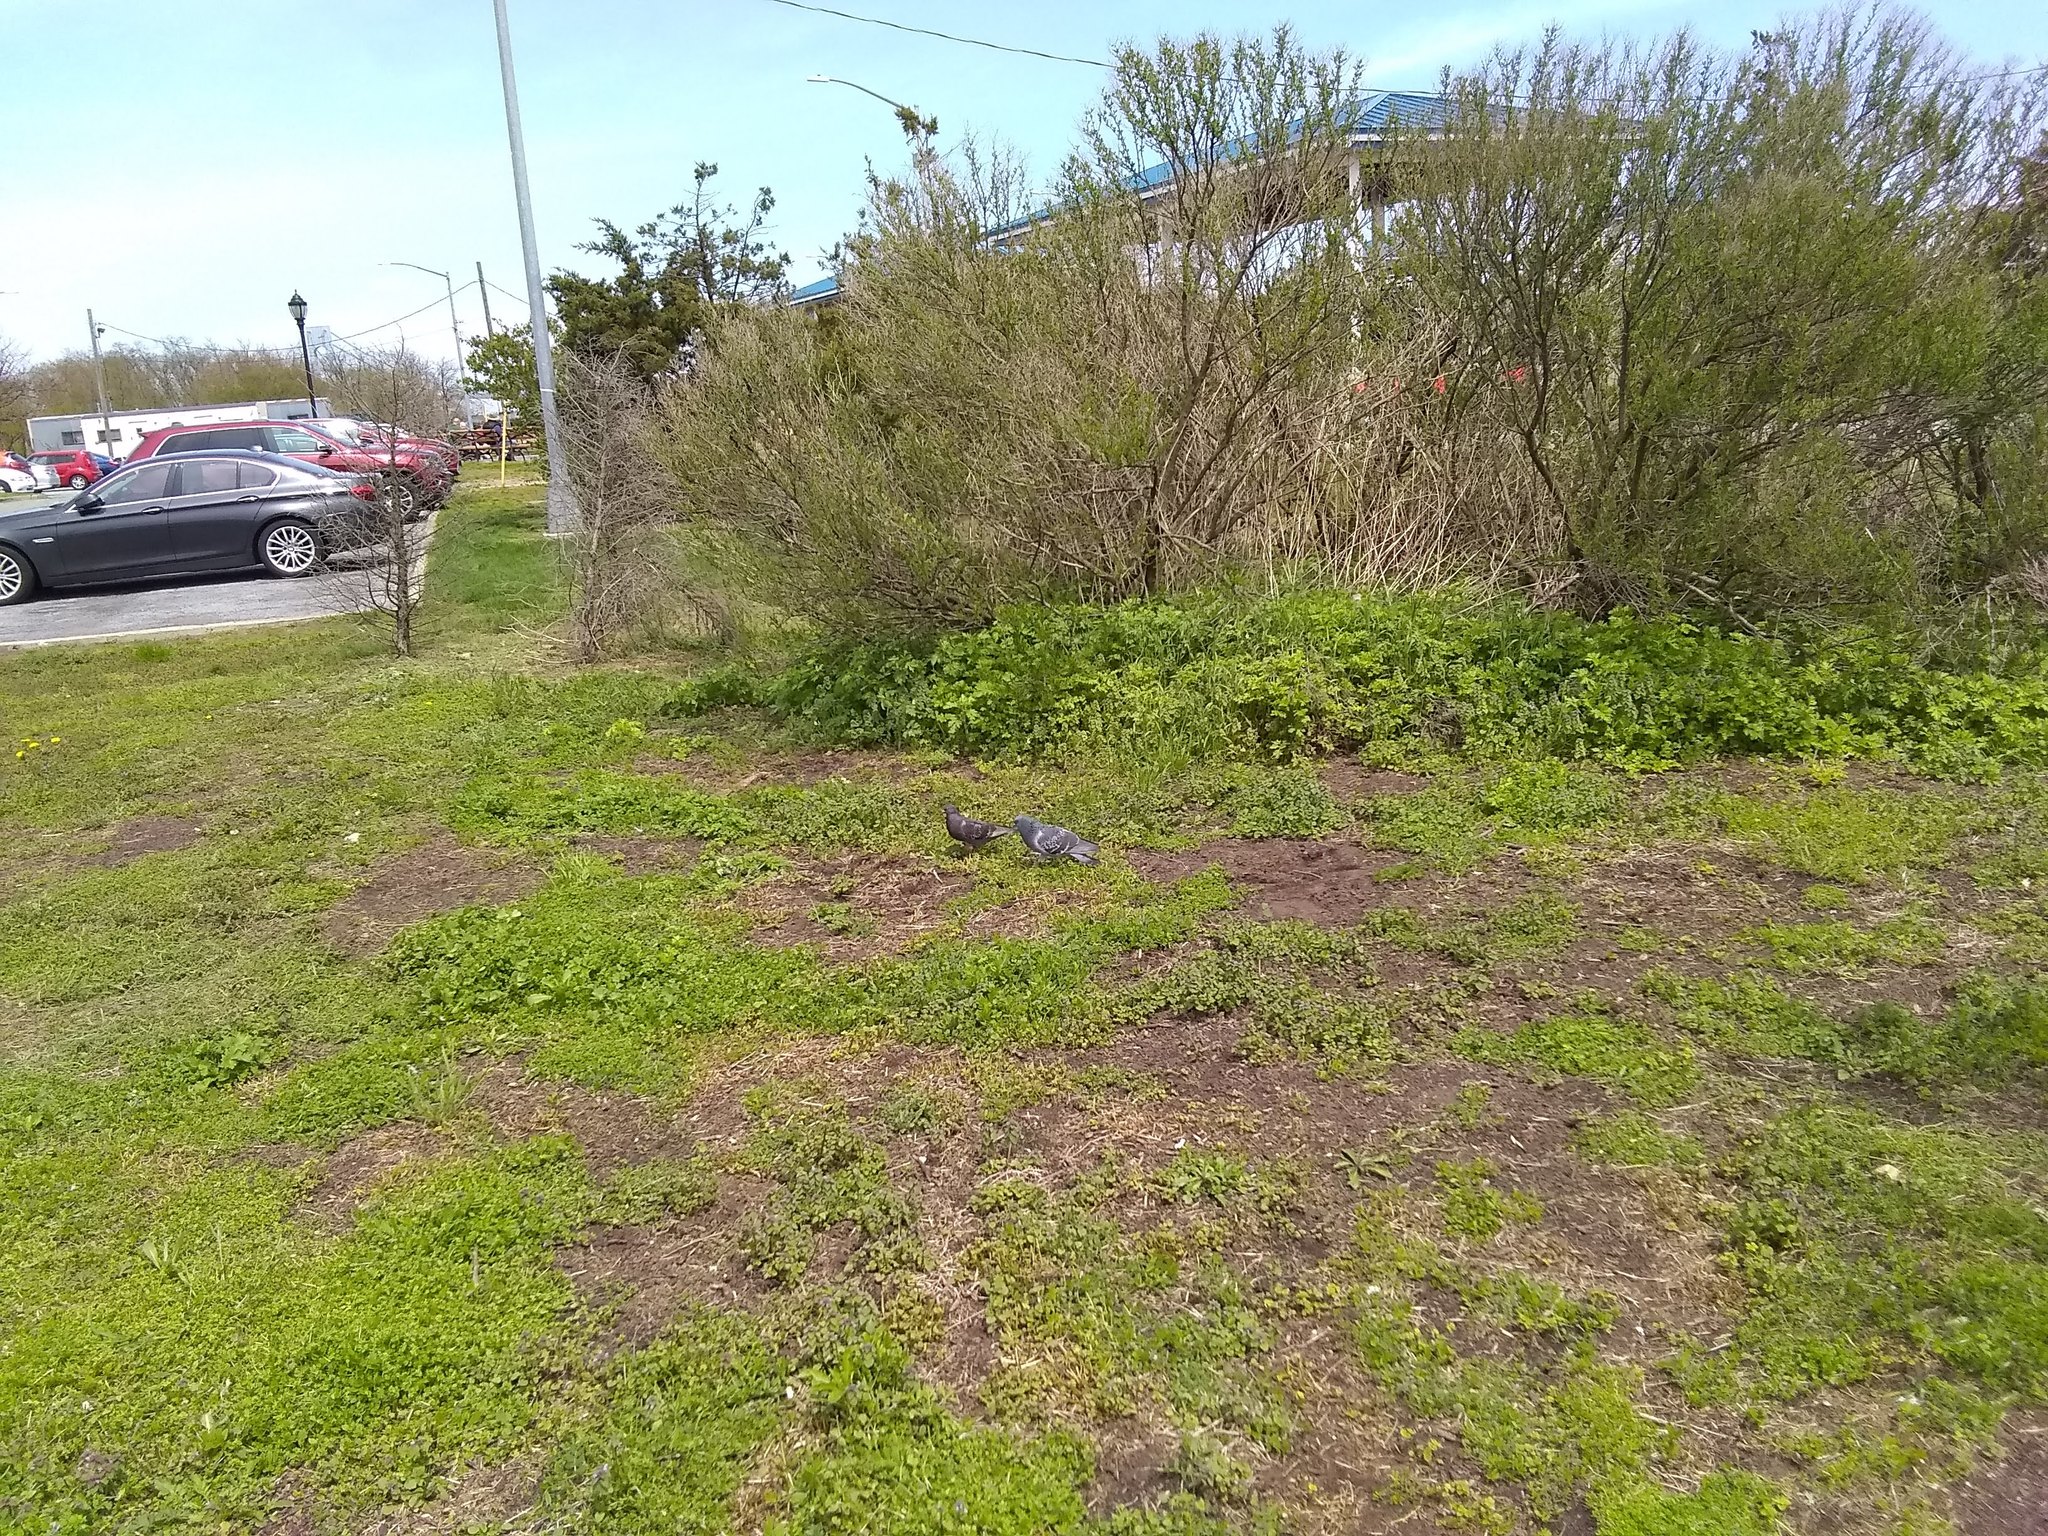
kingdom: Animalia
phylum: Chordata
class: Aves
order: Columbiformes
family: Columbidae
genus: Columba
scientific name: Columba livia
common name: Rock pigeon
